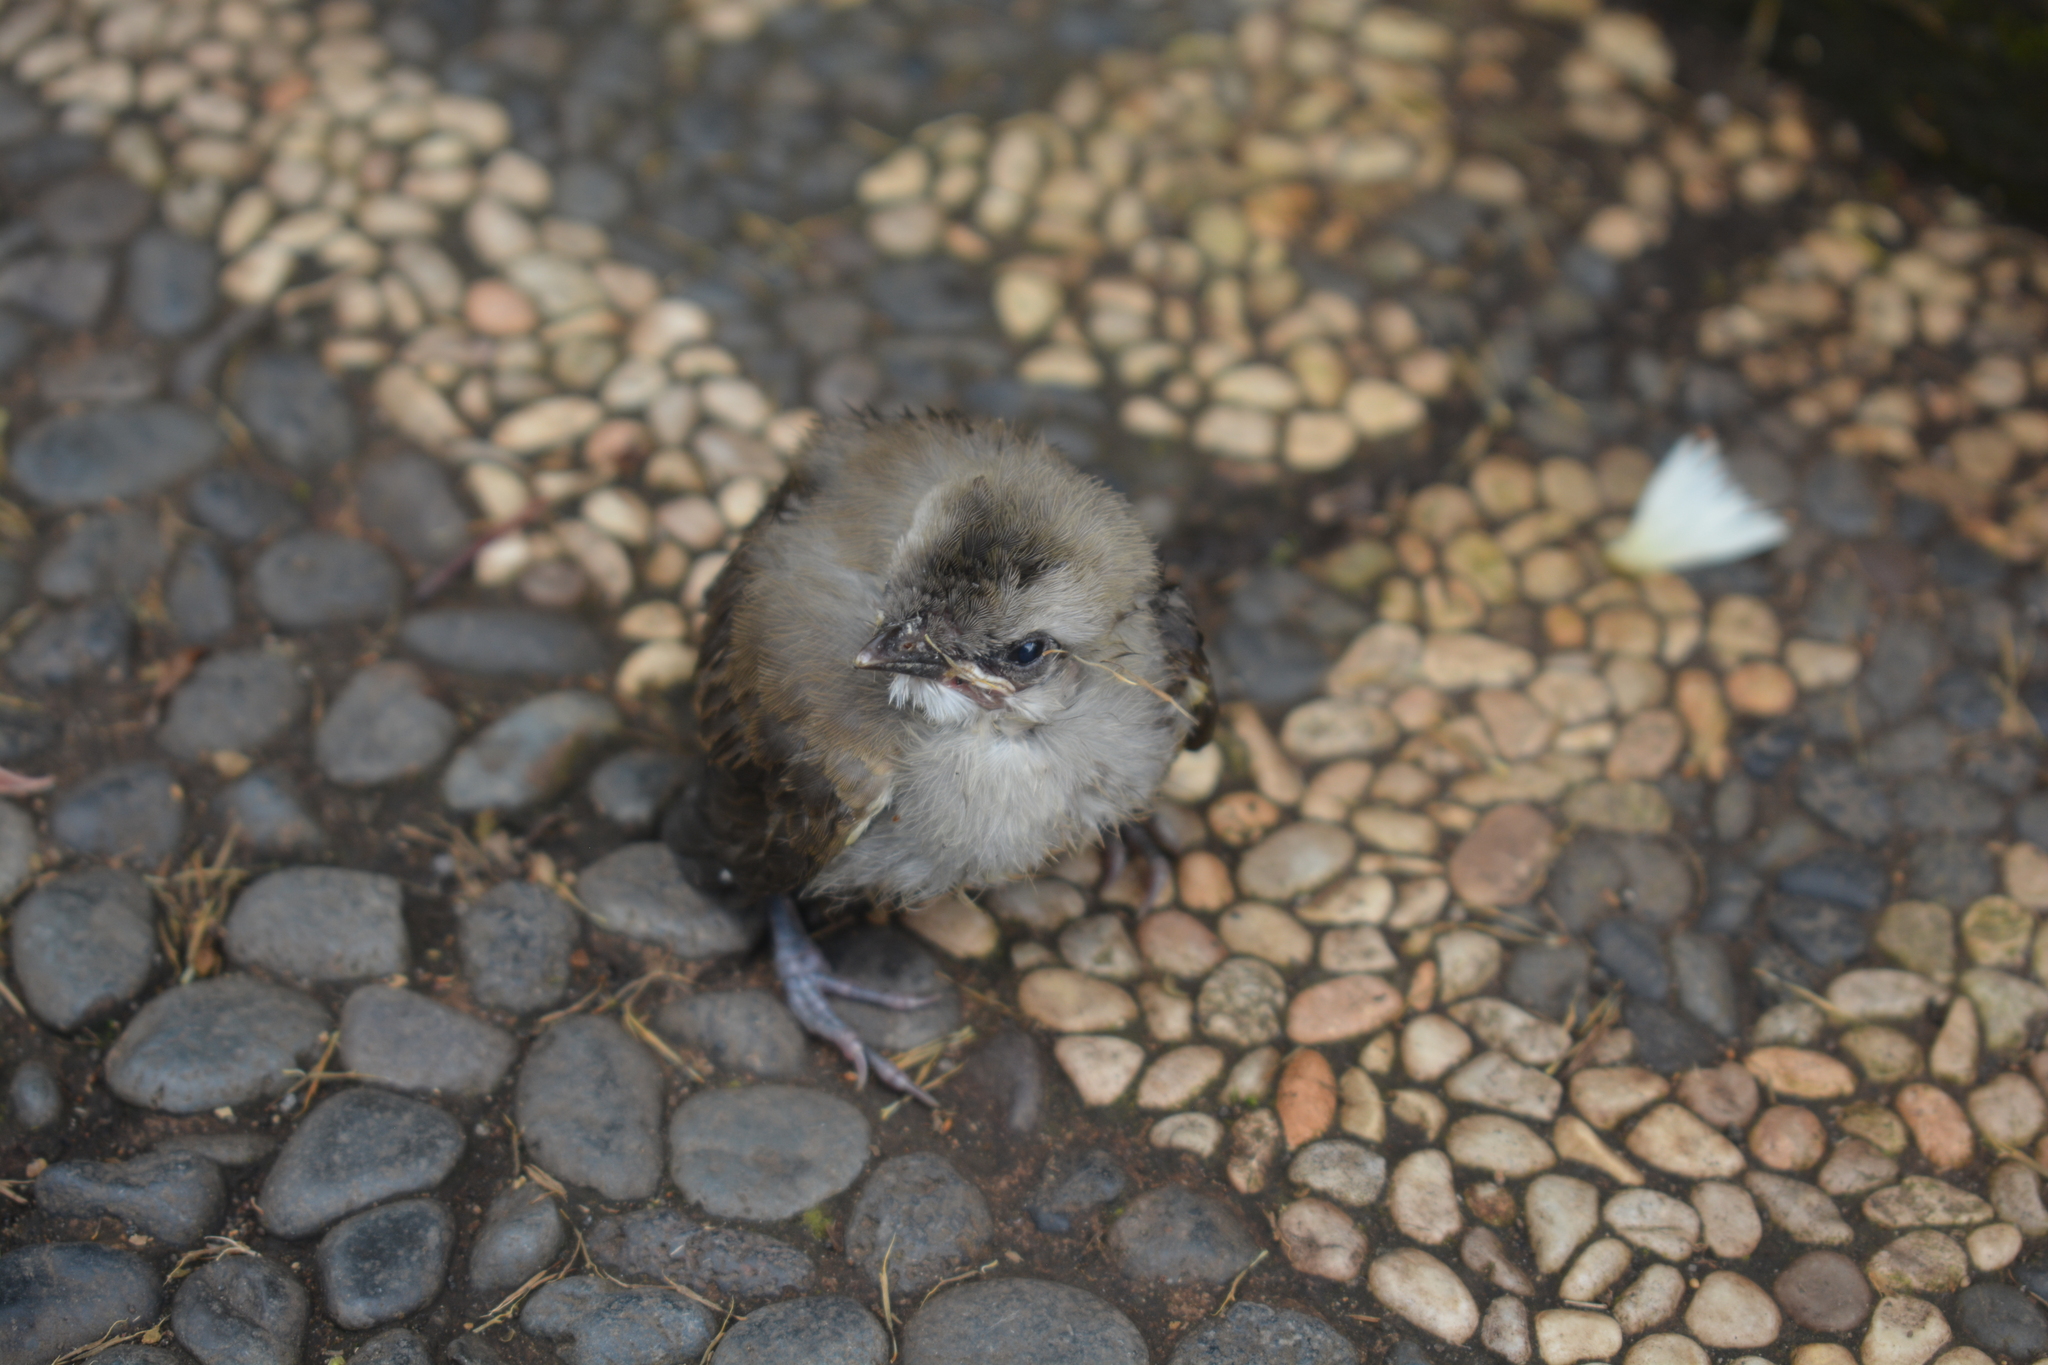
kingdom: Animalia
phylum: Chordata
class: Aves
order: Passeriformes
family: Pycnonotidae
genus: Pycnonotus
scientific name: Pycnonotus goiavier
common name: Yellow-vented bulbul
